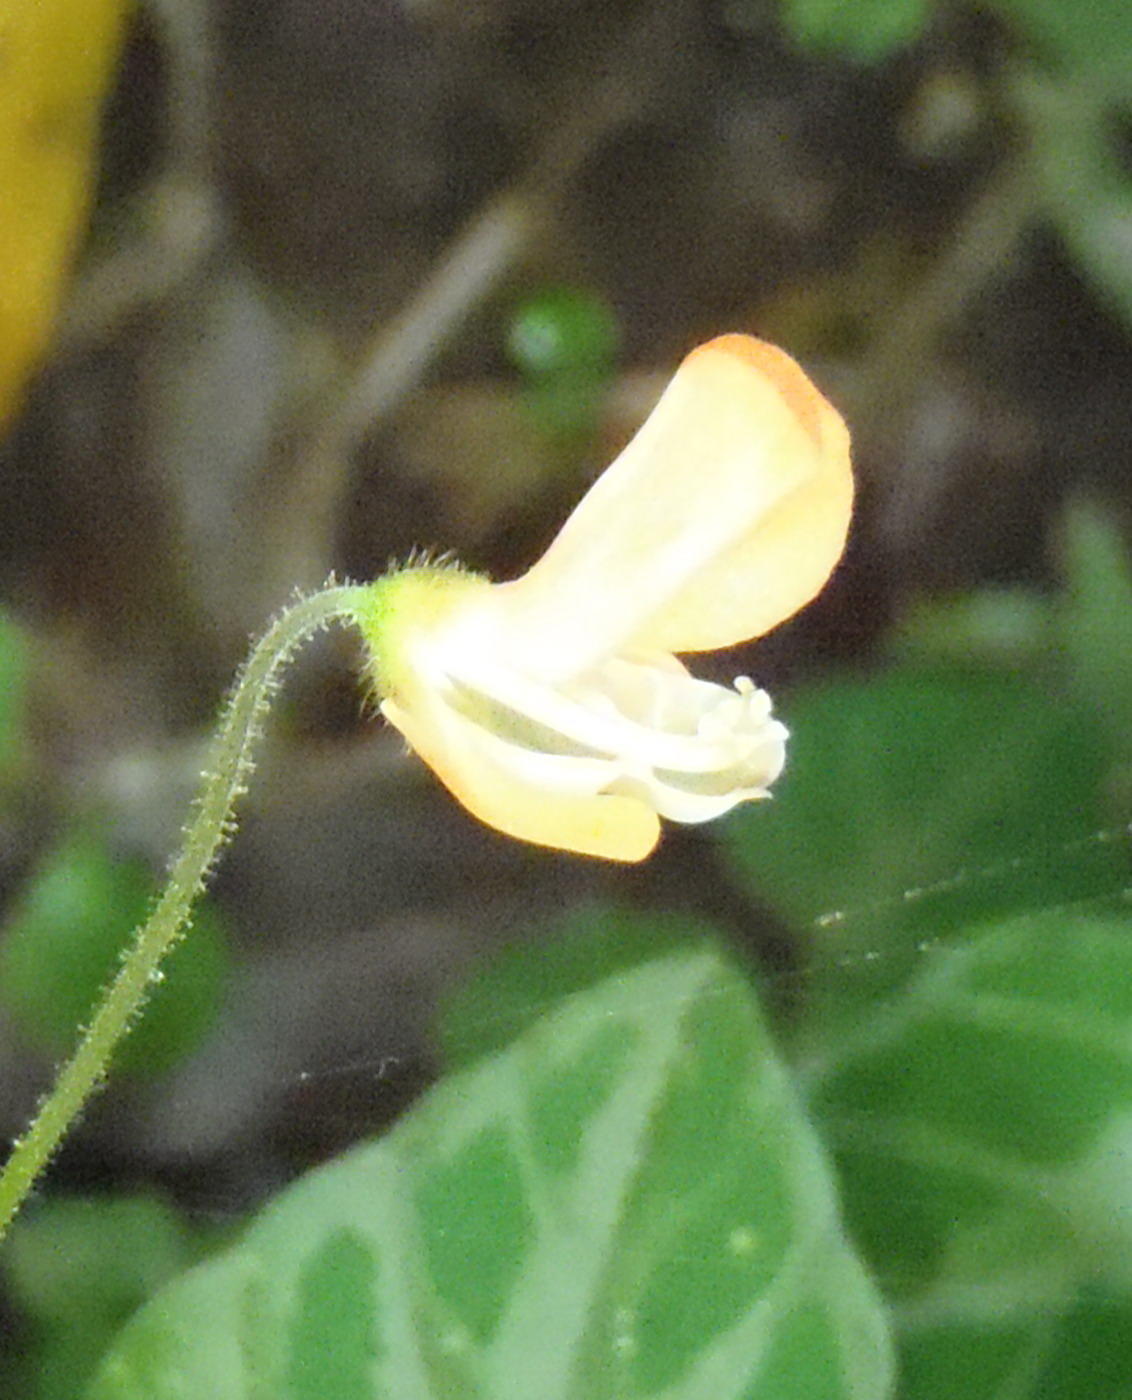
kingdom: Plantae
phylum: Tracheophyta
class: Magnoliopsida
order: Fabales
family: Fabaceae
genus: Hylodesmum
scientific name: Hylodesmum repandum
